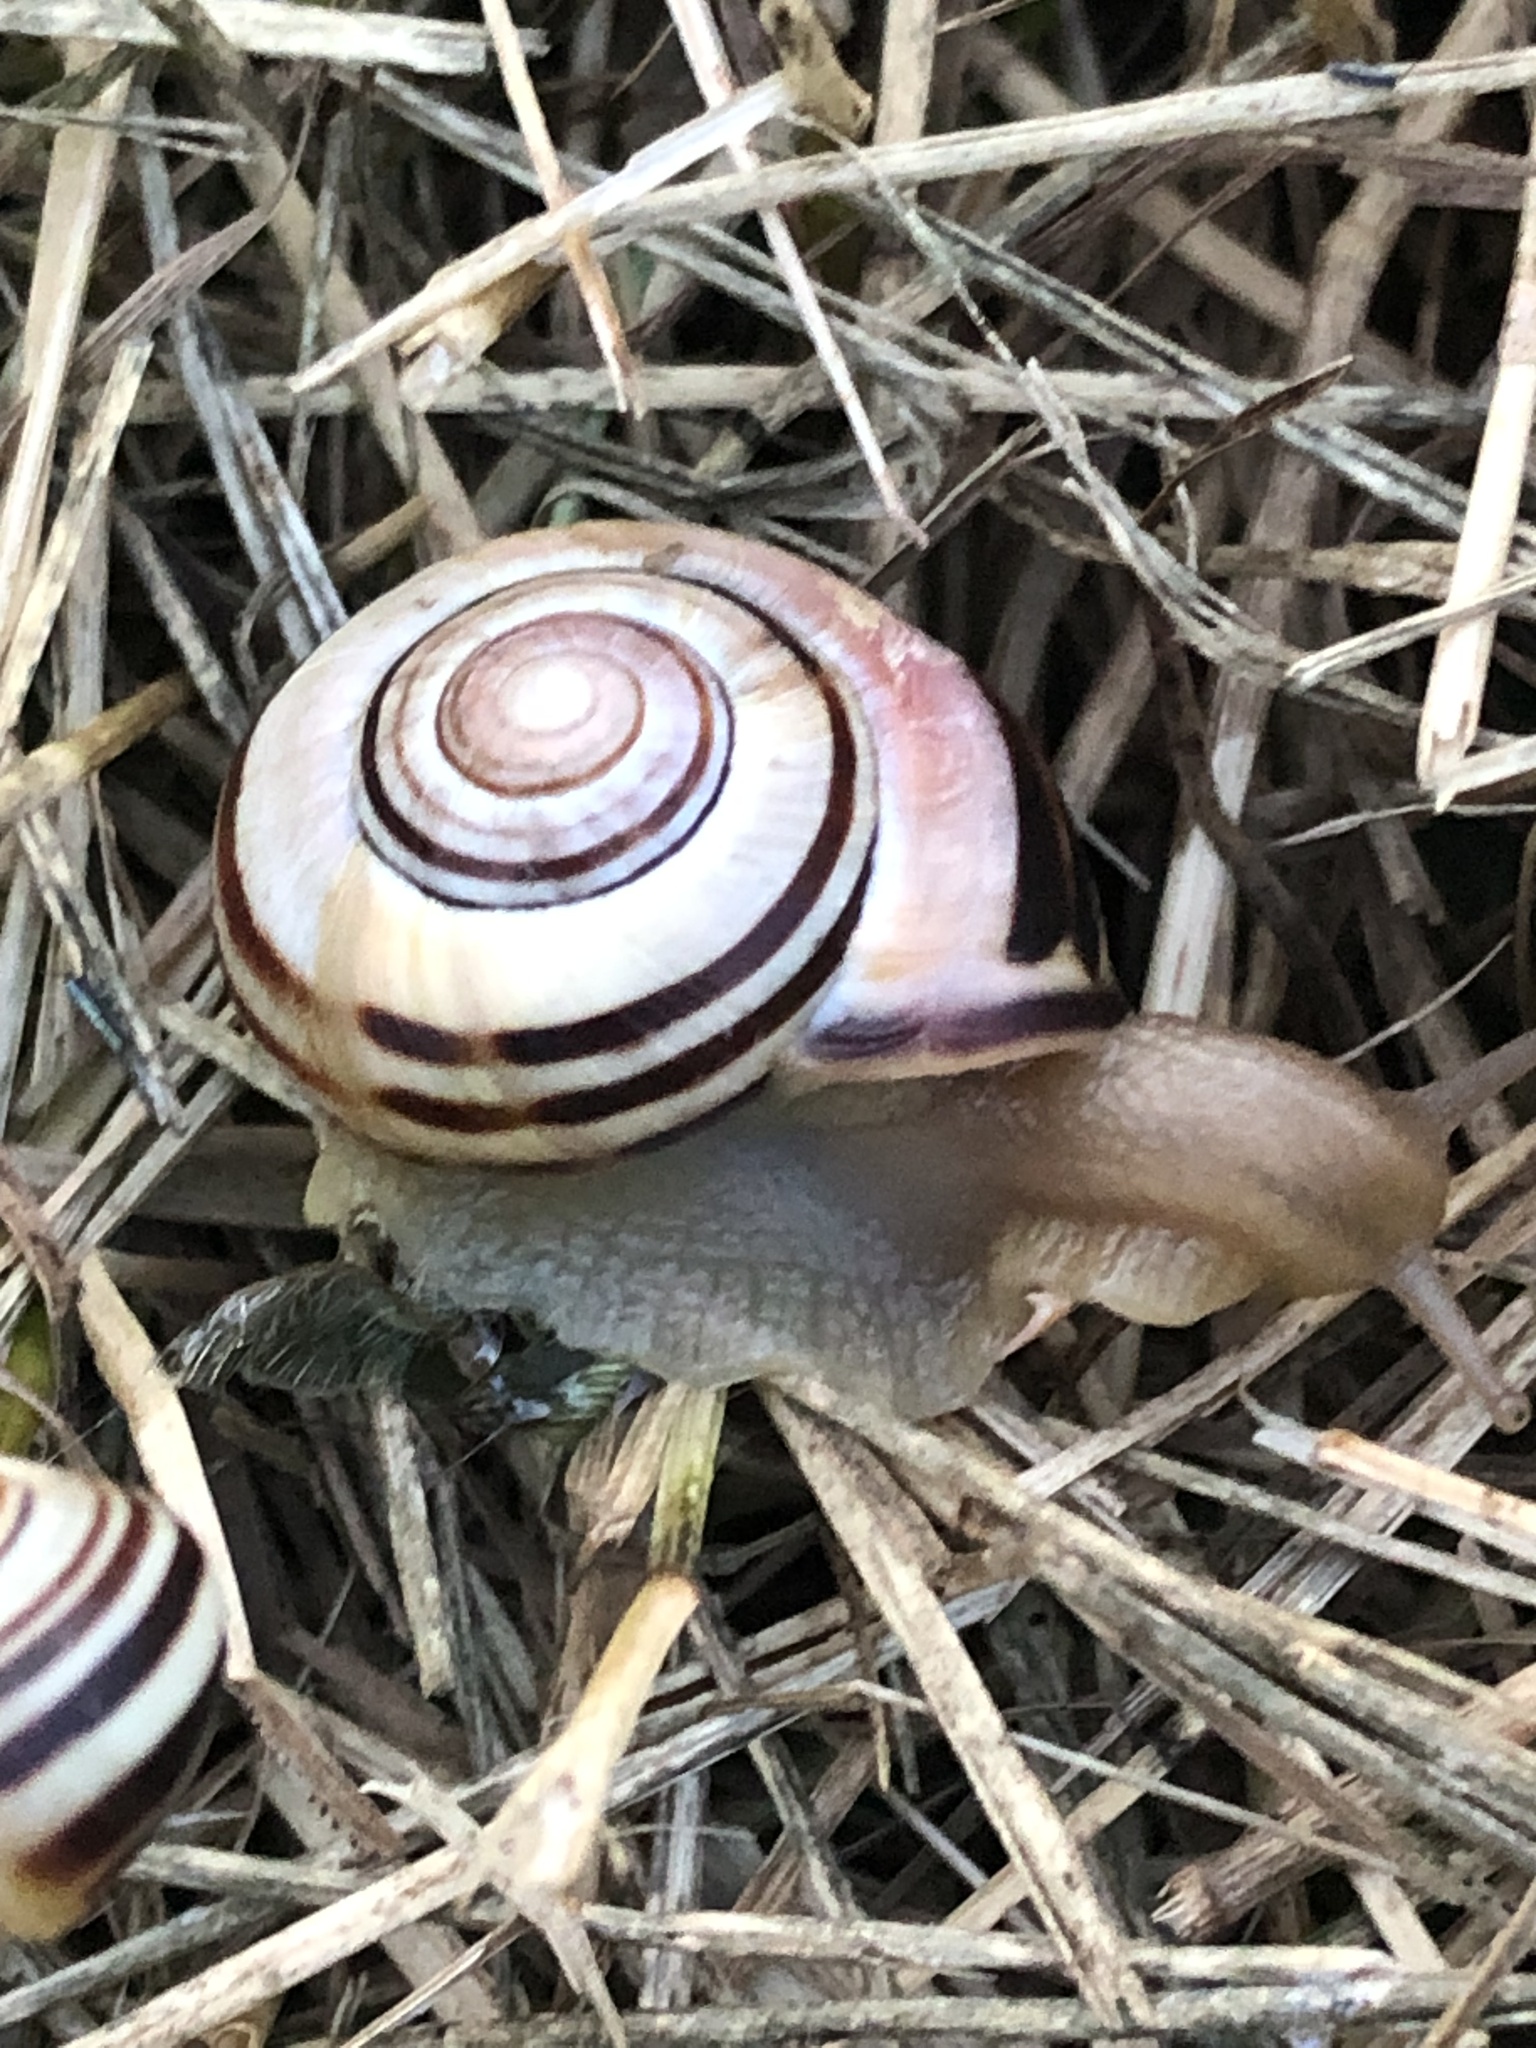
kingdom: Animalia
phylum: Mollusca
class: Gastropoda
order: Stylommatophora
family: Helicidae
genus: Cepaea
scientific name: Cepaea nemoralis
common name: Grovesnail
